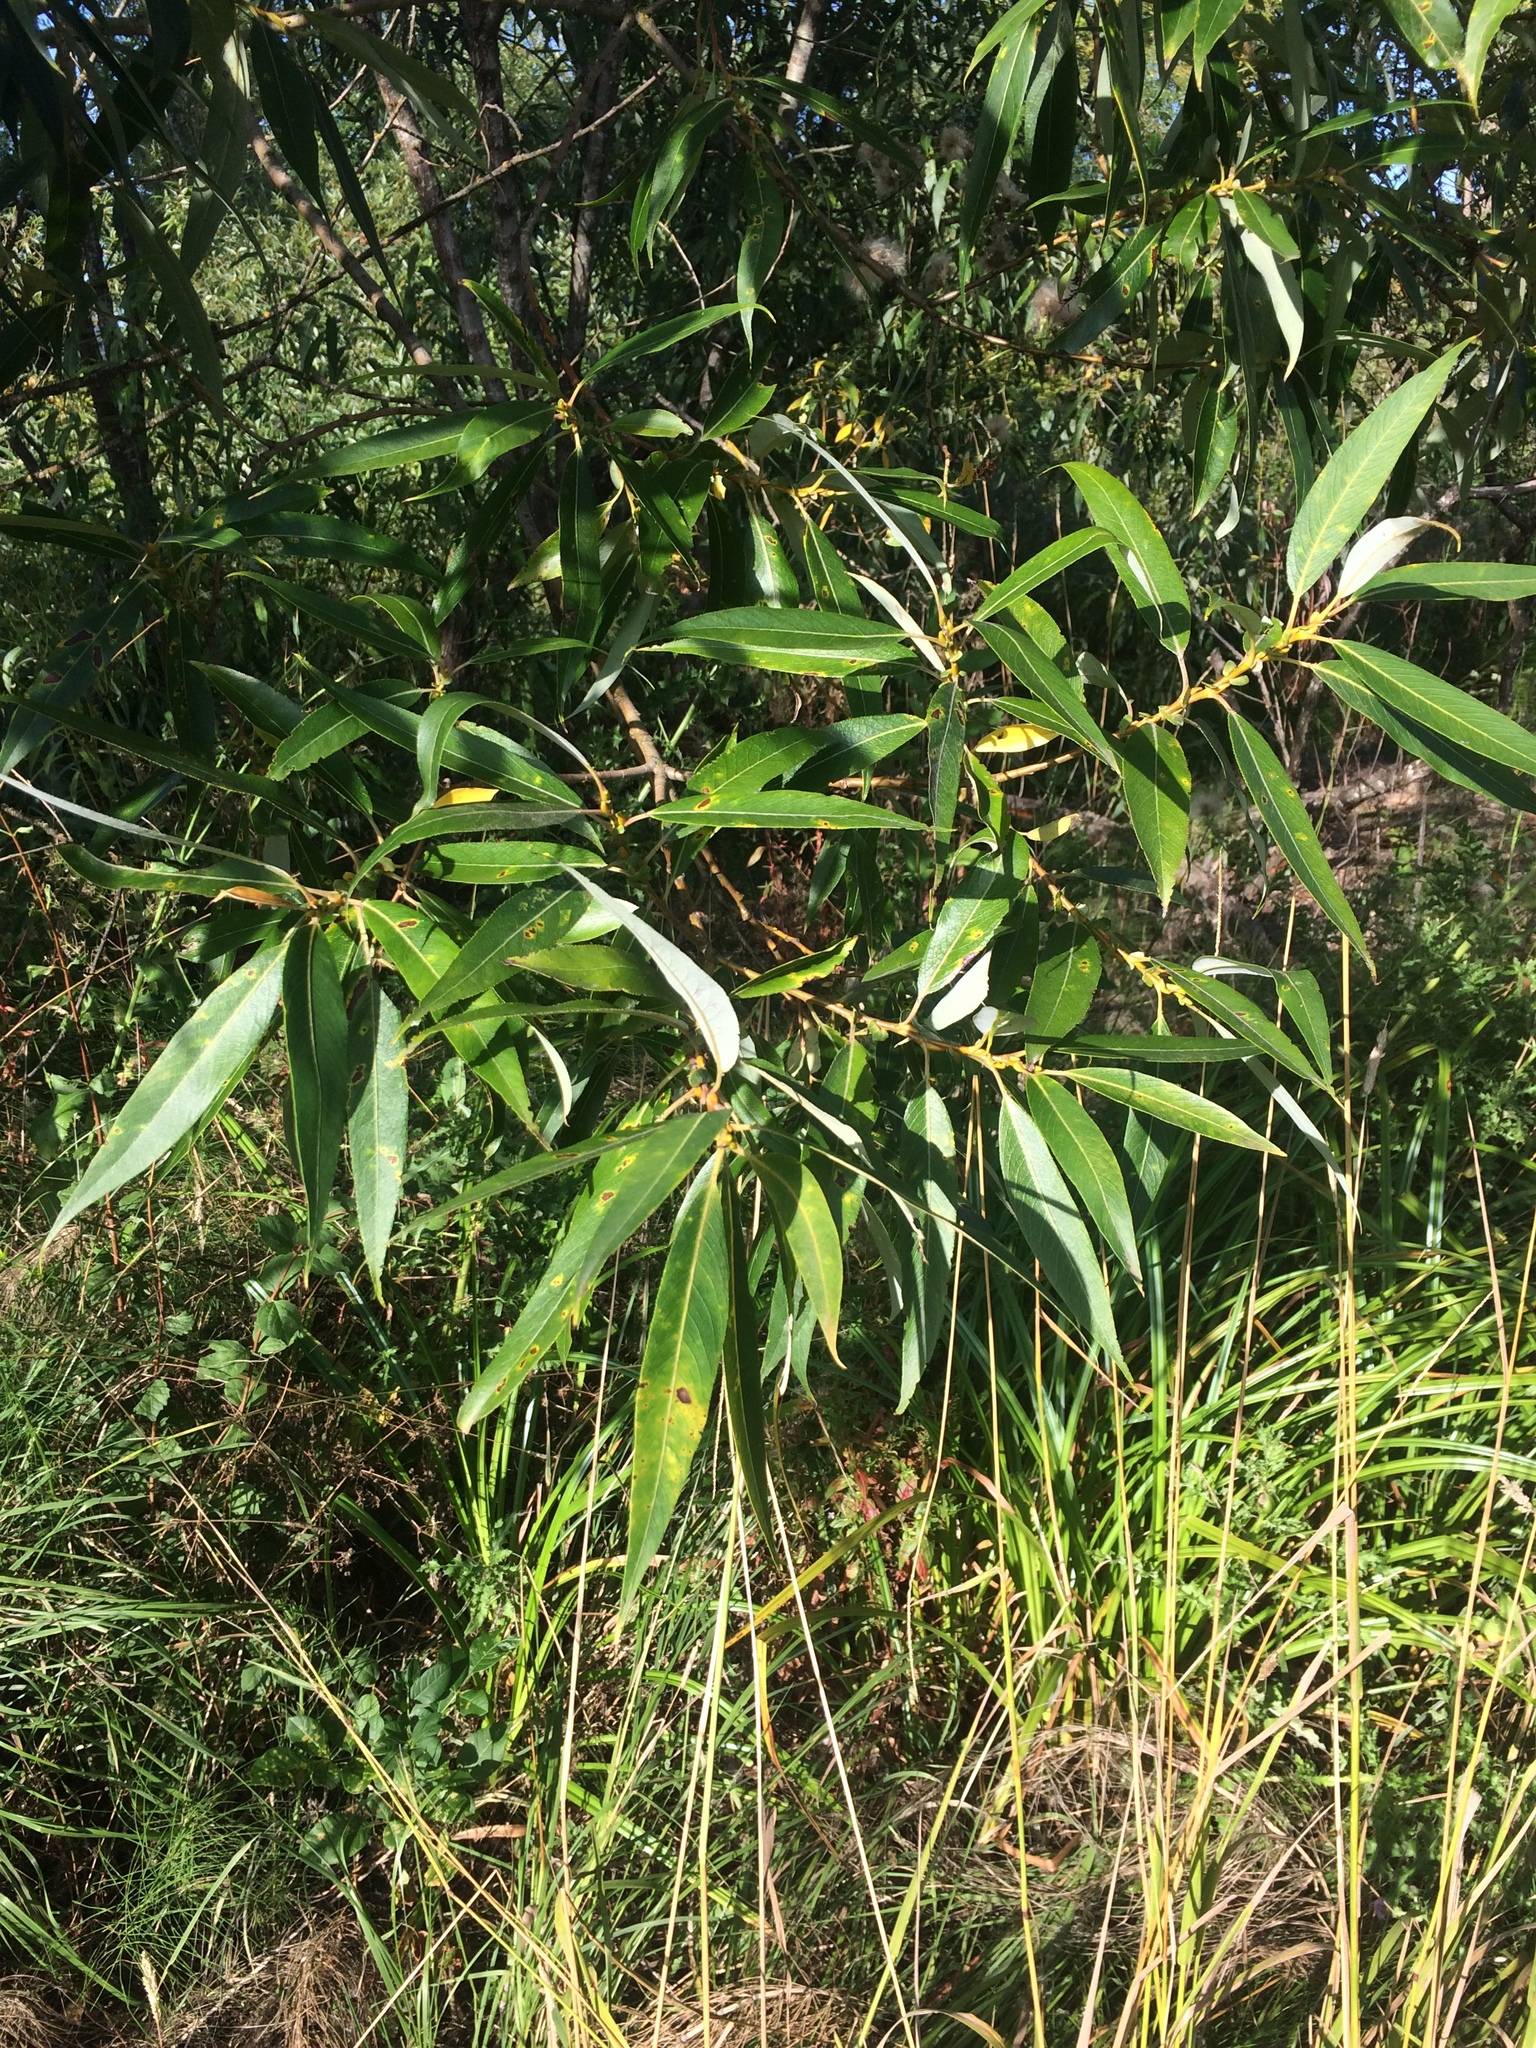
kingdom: Plantae
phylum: Tracheophyta
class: Magnoliopsida
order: Malpighiales
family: Salicaceae
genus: Salix
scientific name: Salix lucida
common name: Shining willow
